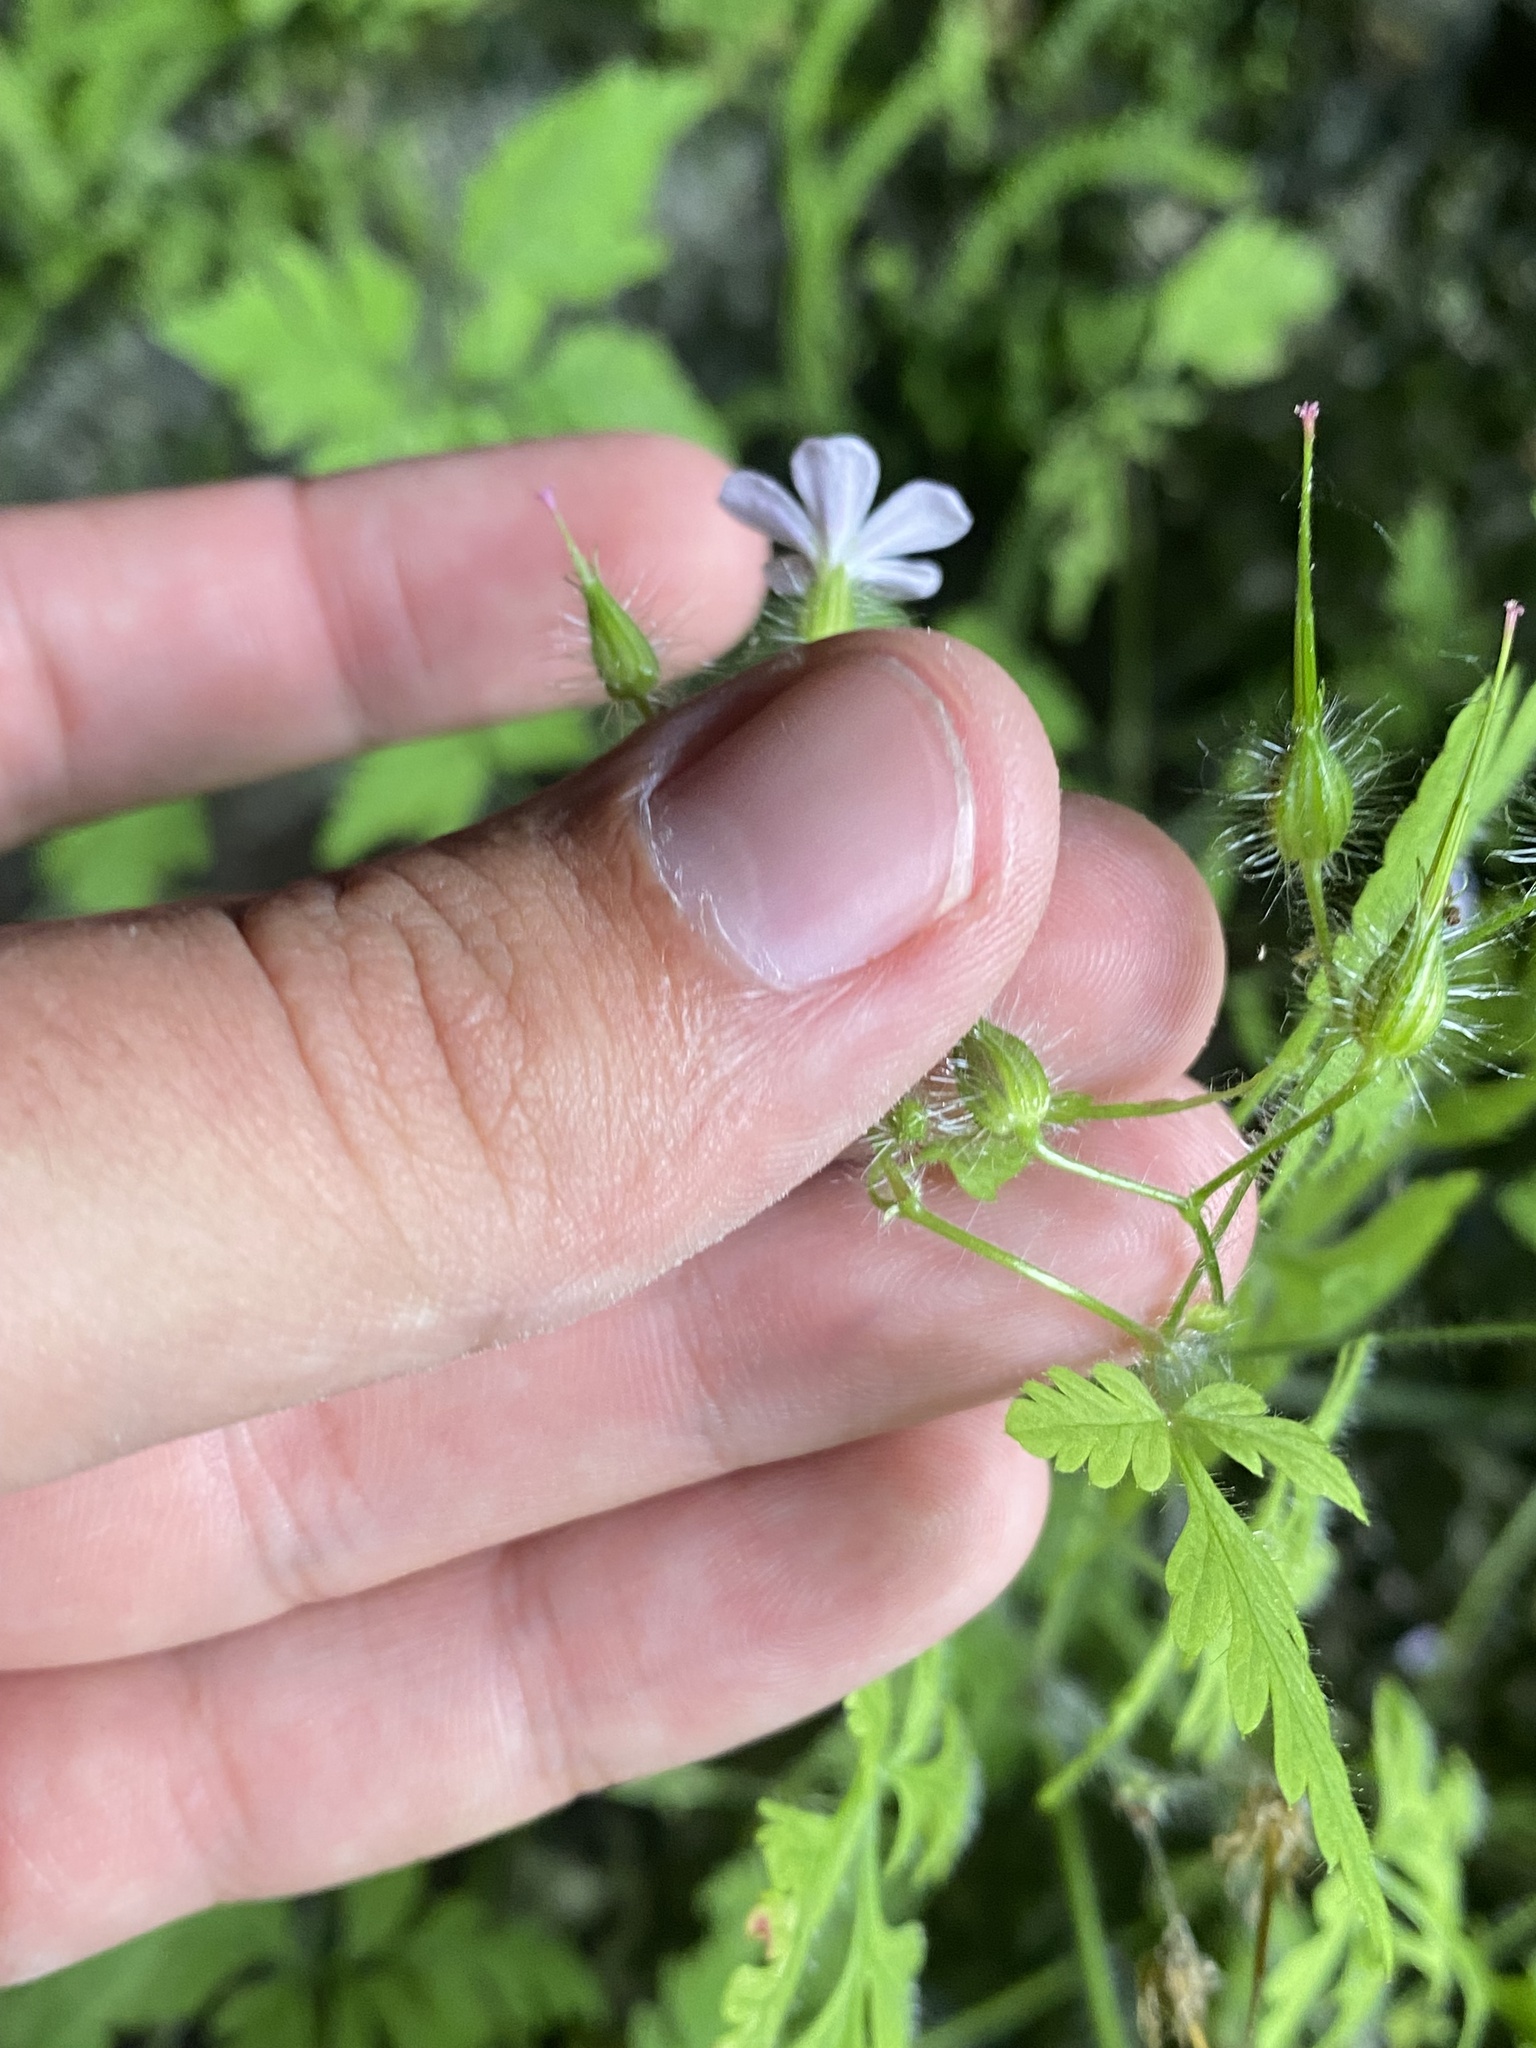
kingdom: Plantae
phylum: Tracheophyta
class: Magnoliopsida
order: Geraniales
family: Geraniaceae
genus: Geranium
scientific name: Geranium robertianum
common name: Herb-robert
